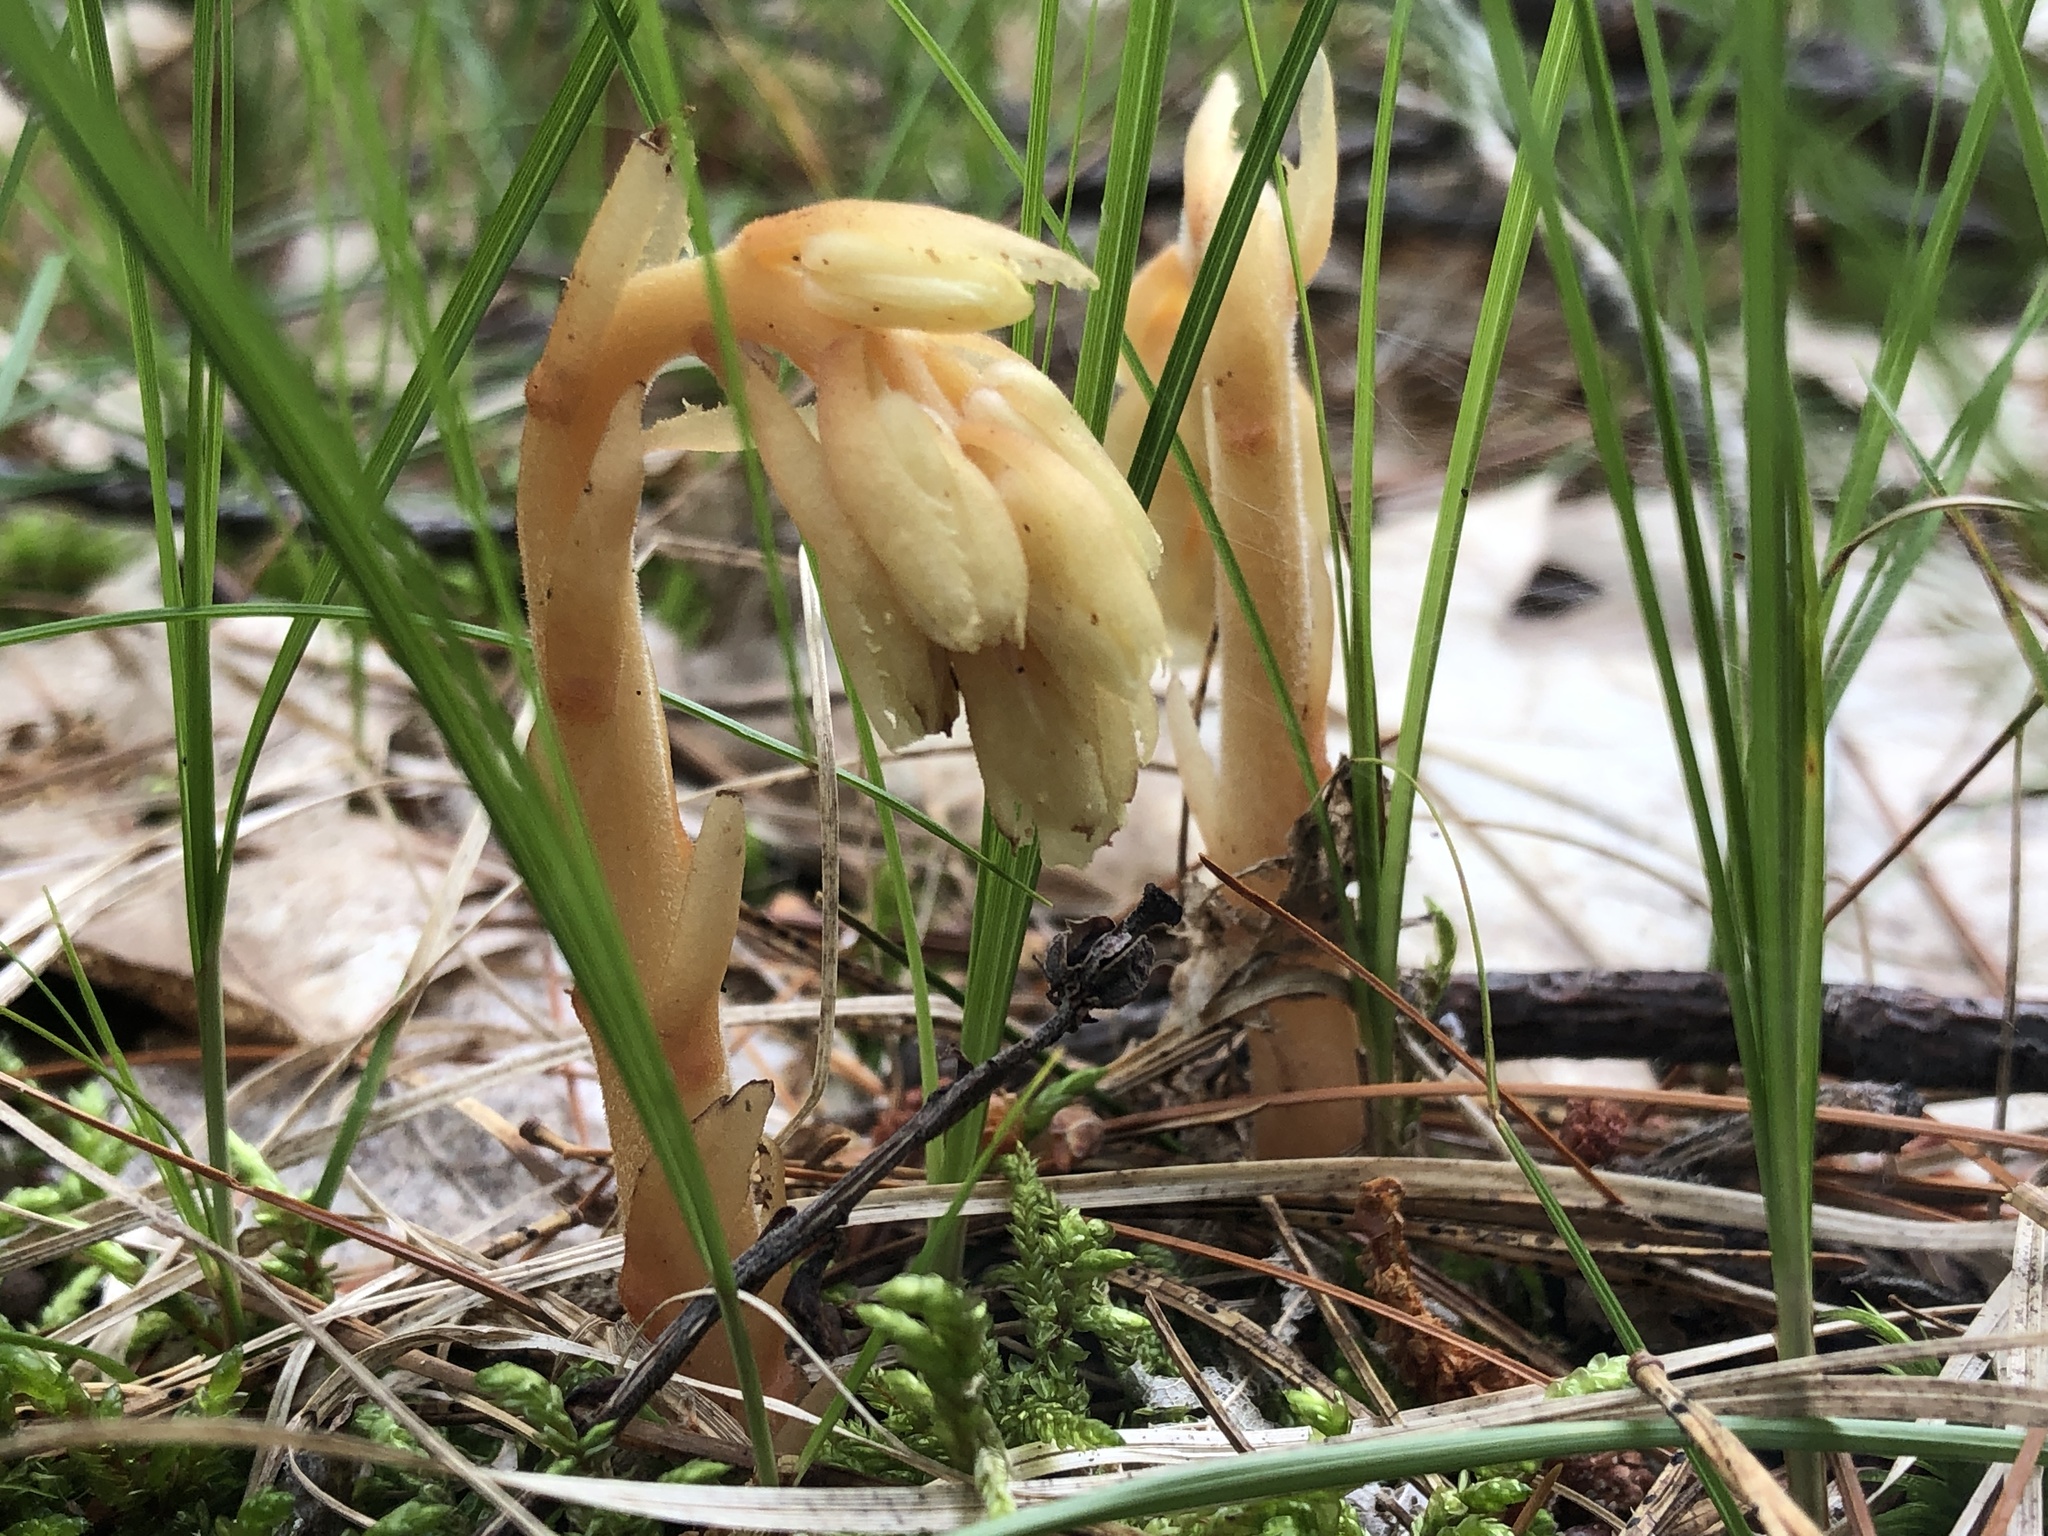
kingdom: Plantae
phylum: Tracheophyta
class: Magnoliopsida
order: Ericales
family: Ericaceae
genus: Hypopitys
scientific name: Hypopitys monotropa
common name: Yellow bird's-nest
